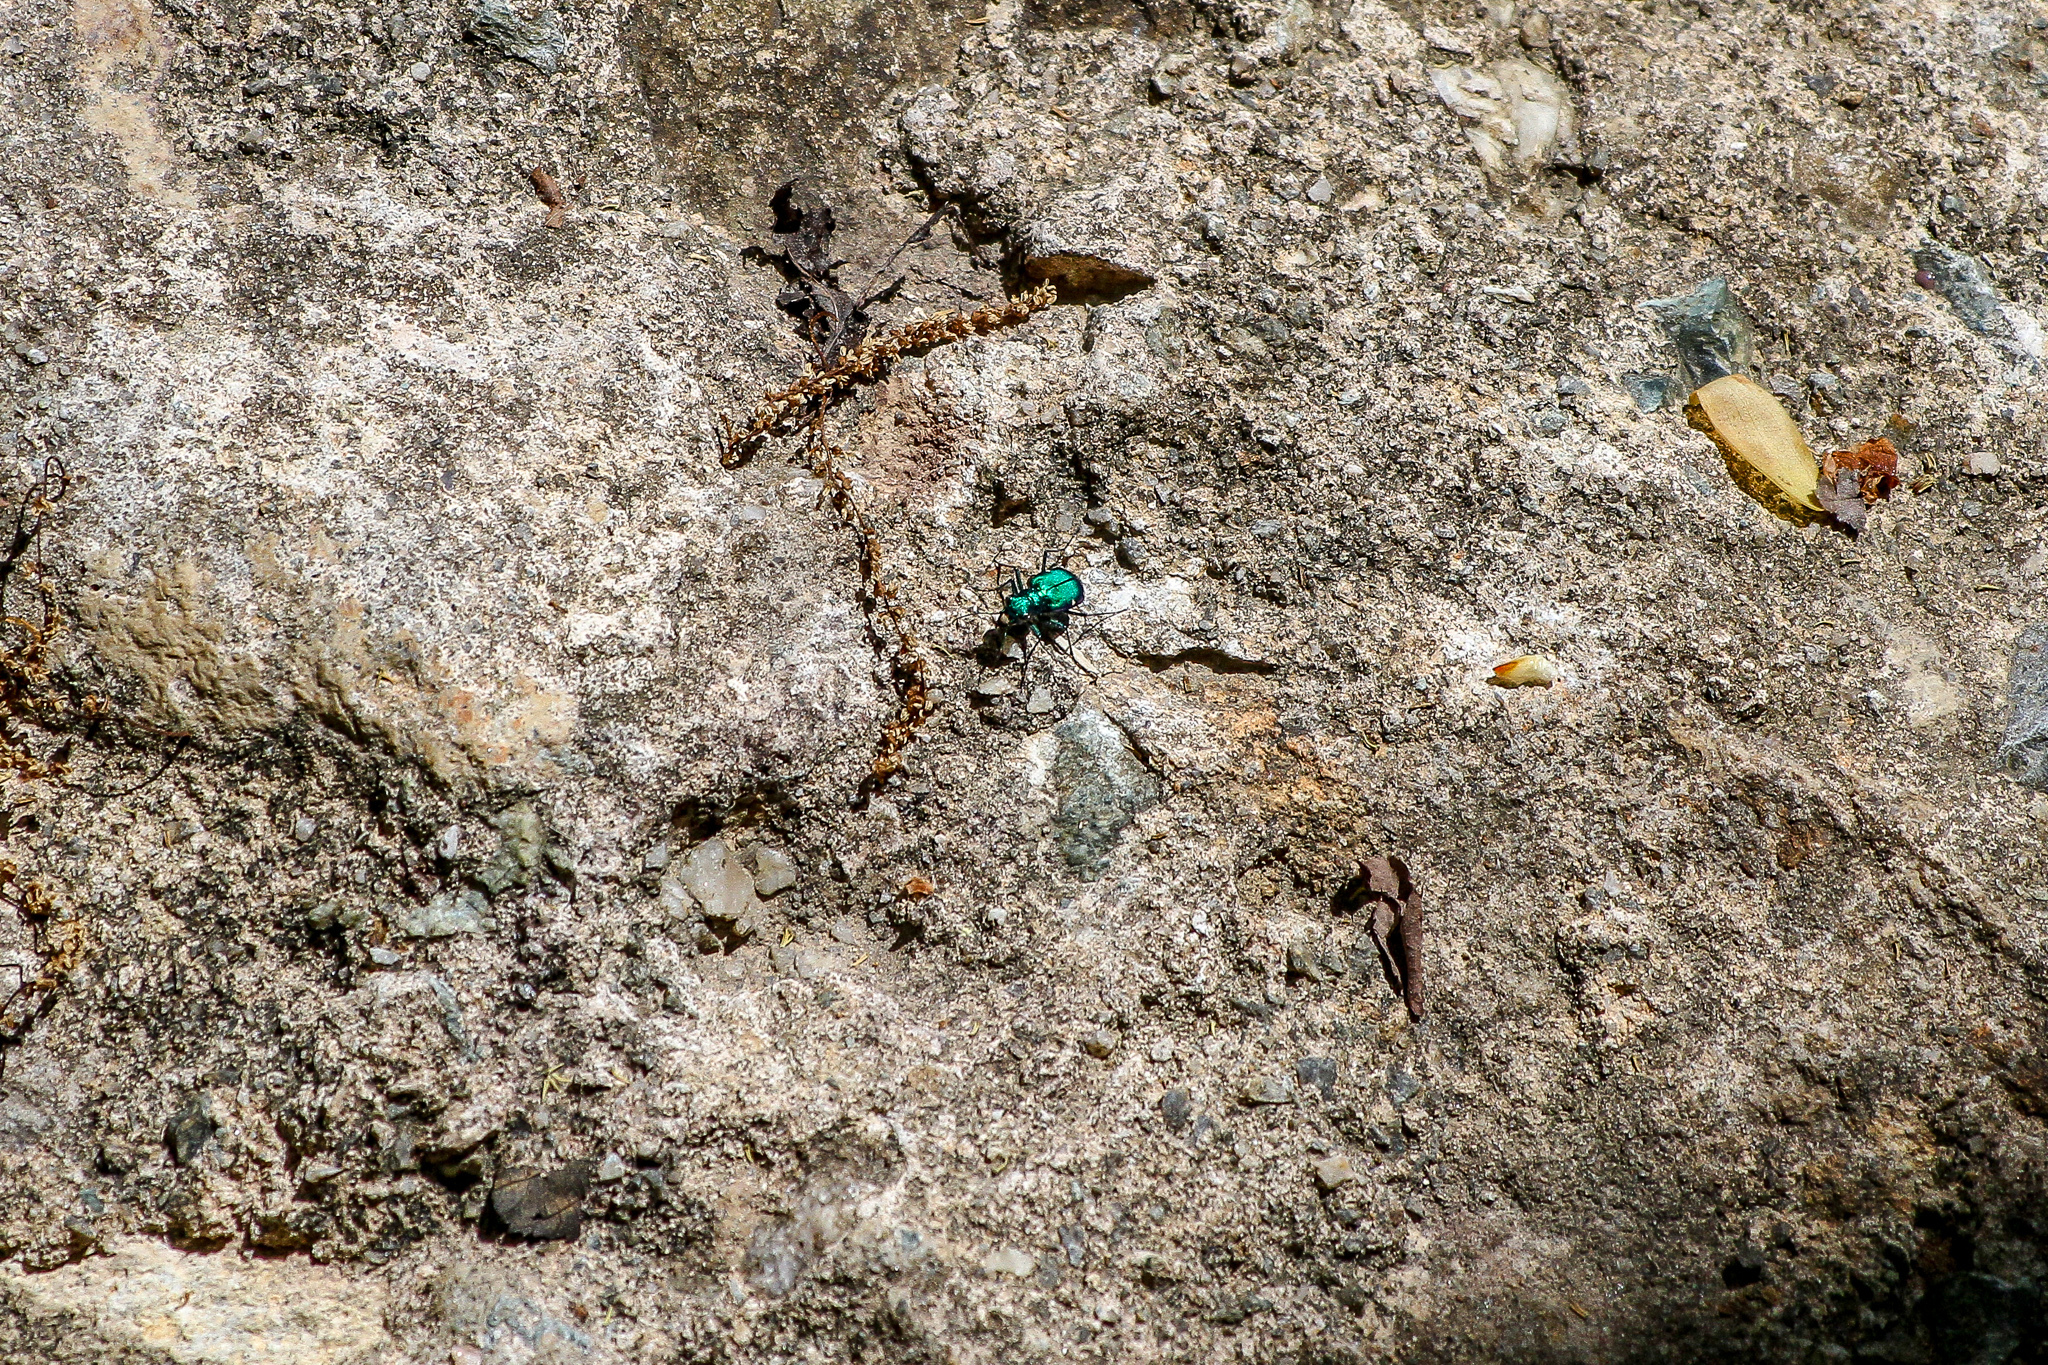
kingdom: Animalia
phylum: Arthropoda
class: Insecta
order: Coleoptera
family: Carabidae
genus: Cicindela
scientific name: Cicindela sexguttata
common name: Six-spotted tiger beetle
